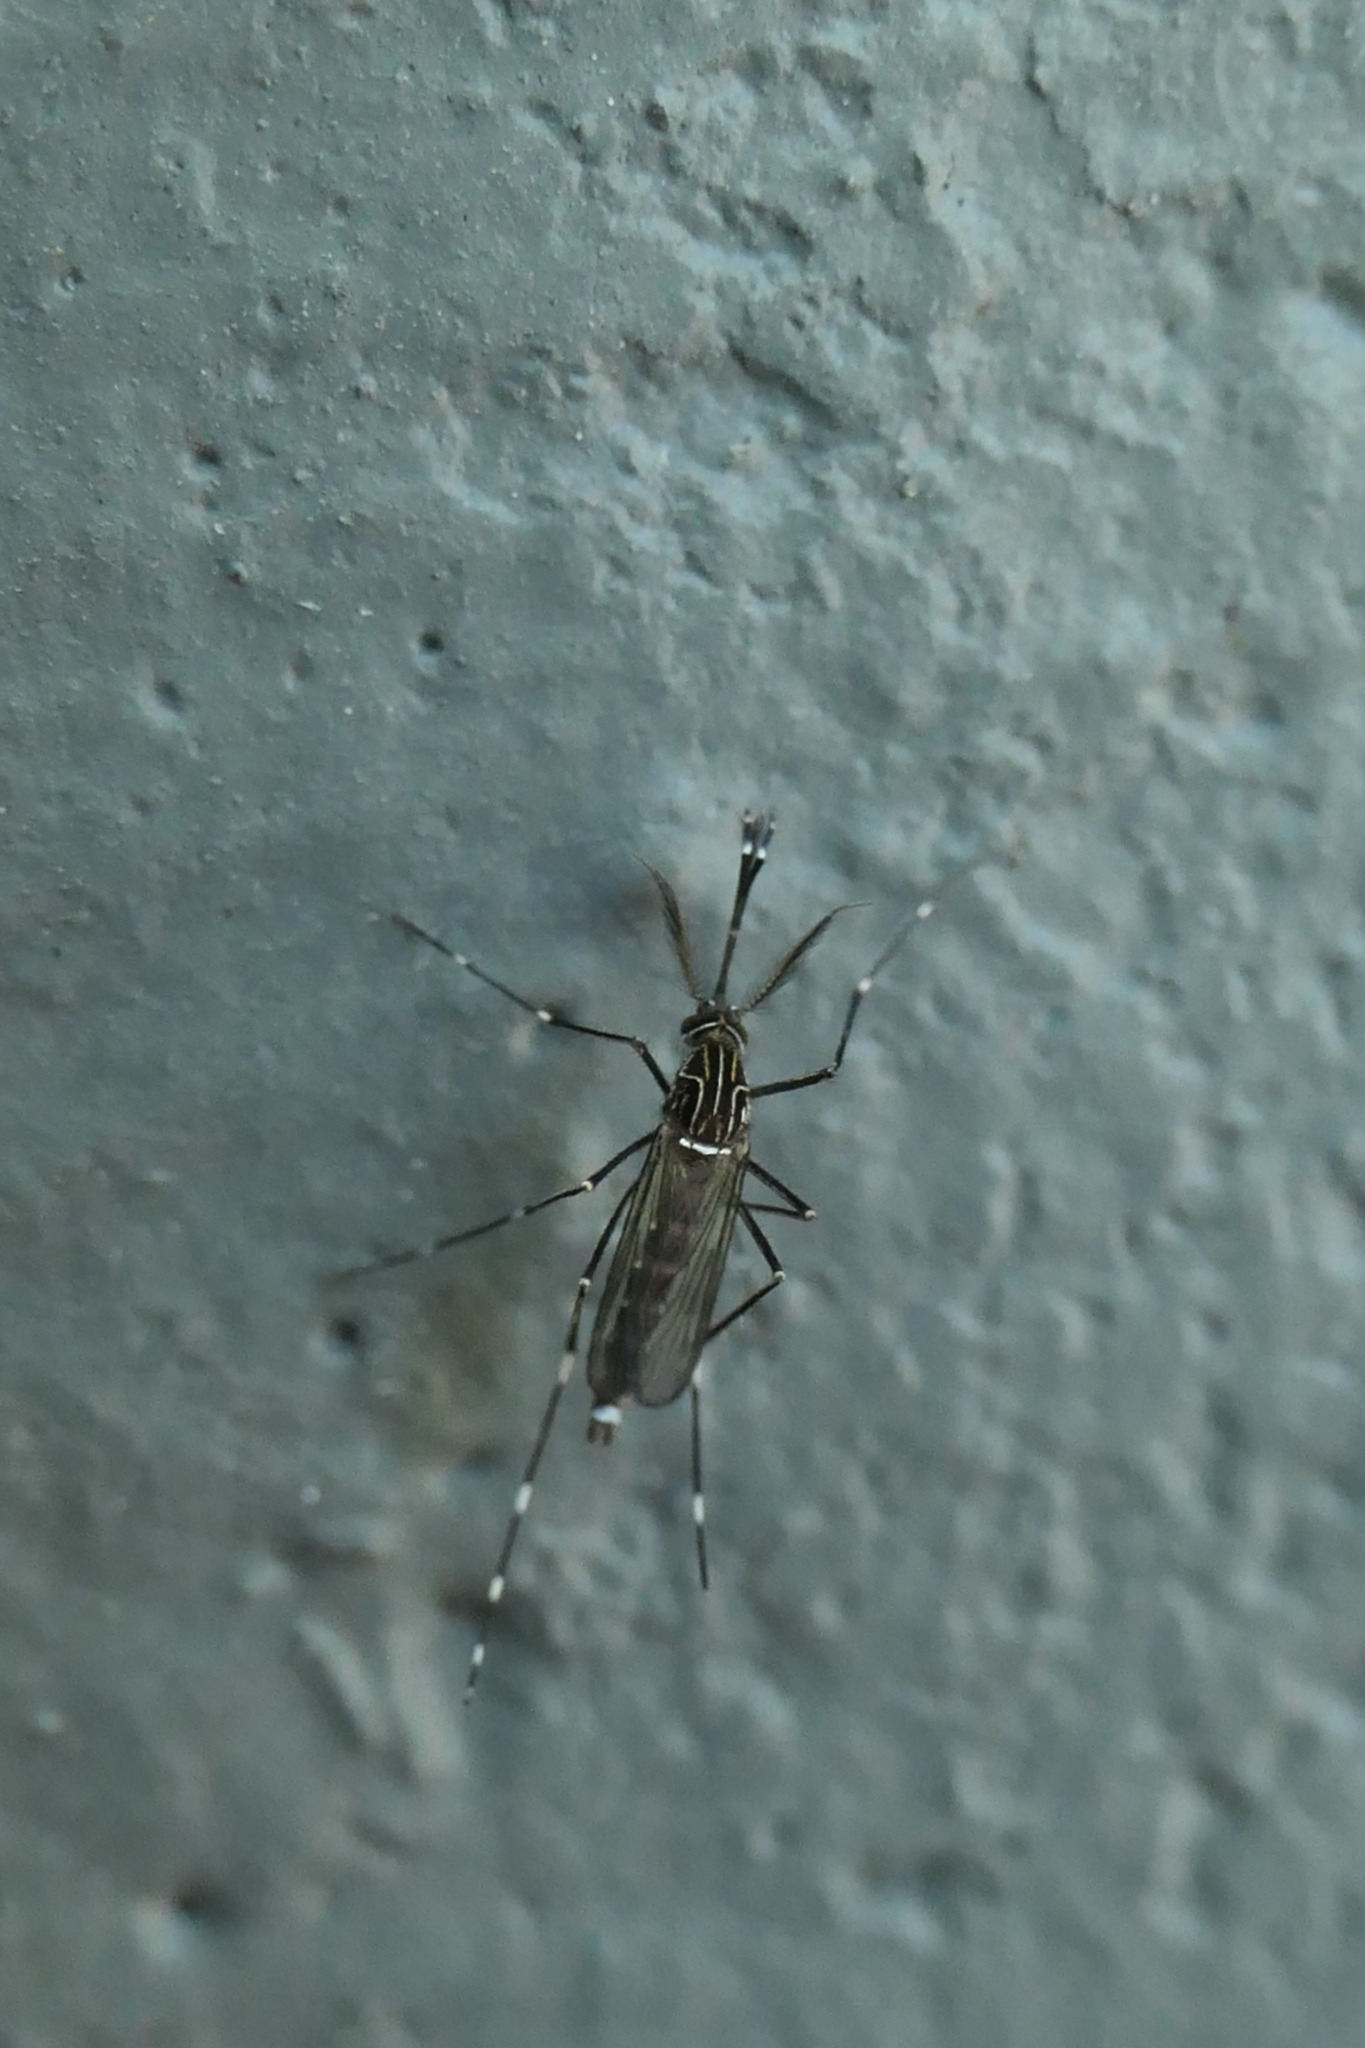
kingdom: Animalia
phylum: Arthropoda
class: Insecta
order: Diptera
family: Culicidae
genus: Aedes
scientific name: Aedes notoscriptus
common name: Australian backyard mosquito
